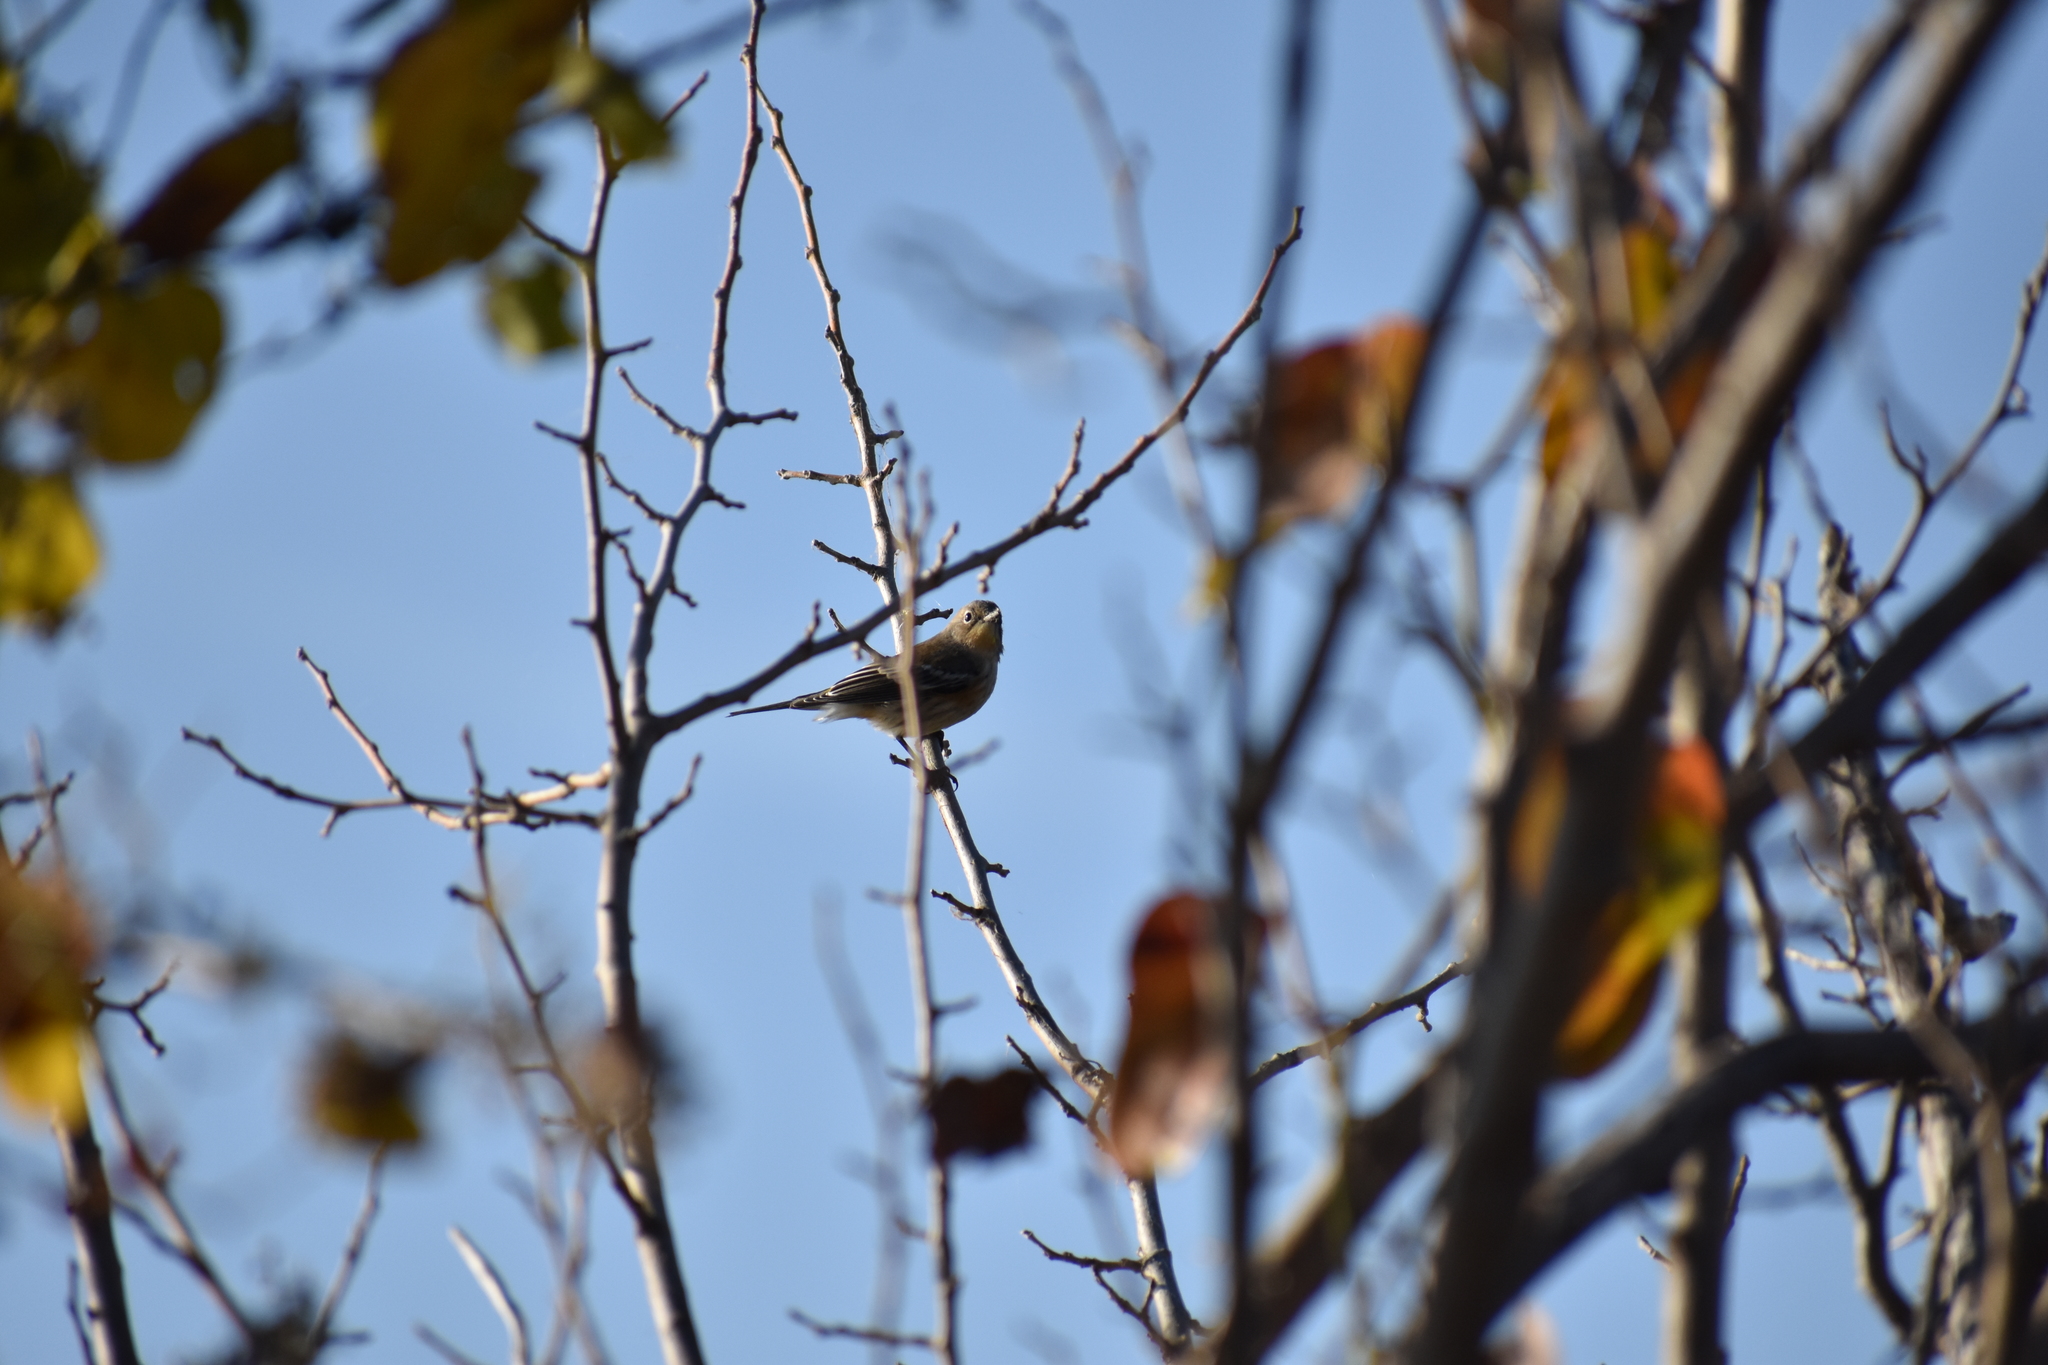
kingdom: Animalia
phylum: Chordata
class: Aves
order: Passeriformes
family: Parulidae
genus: Setophaga
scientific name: Setophaga coronata
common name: Myrtle warbler
